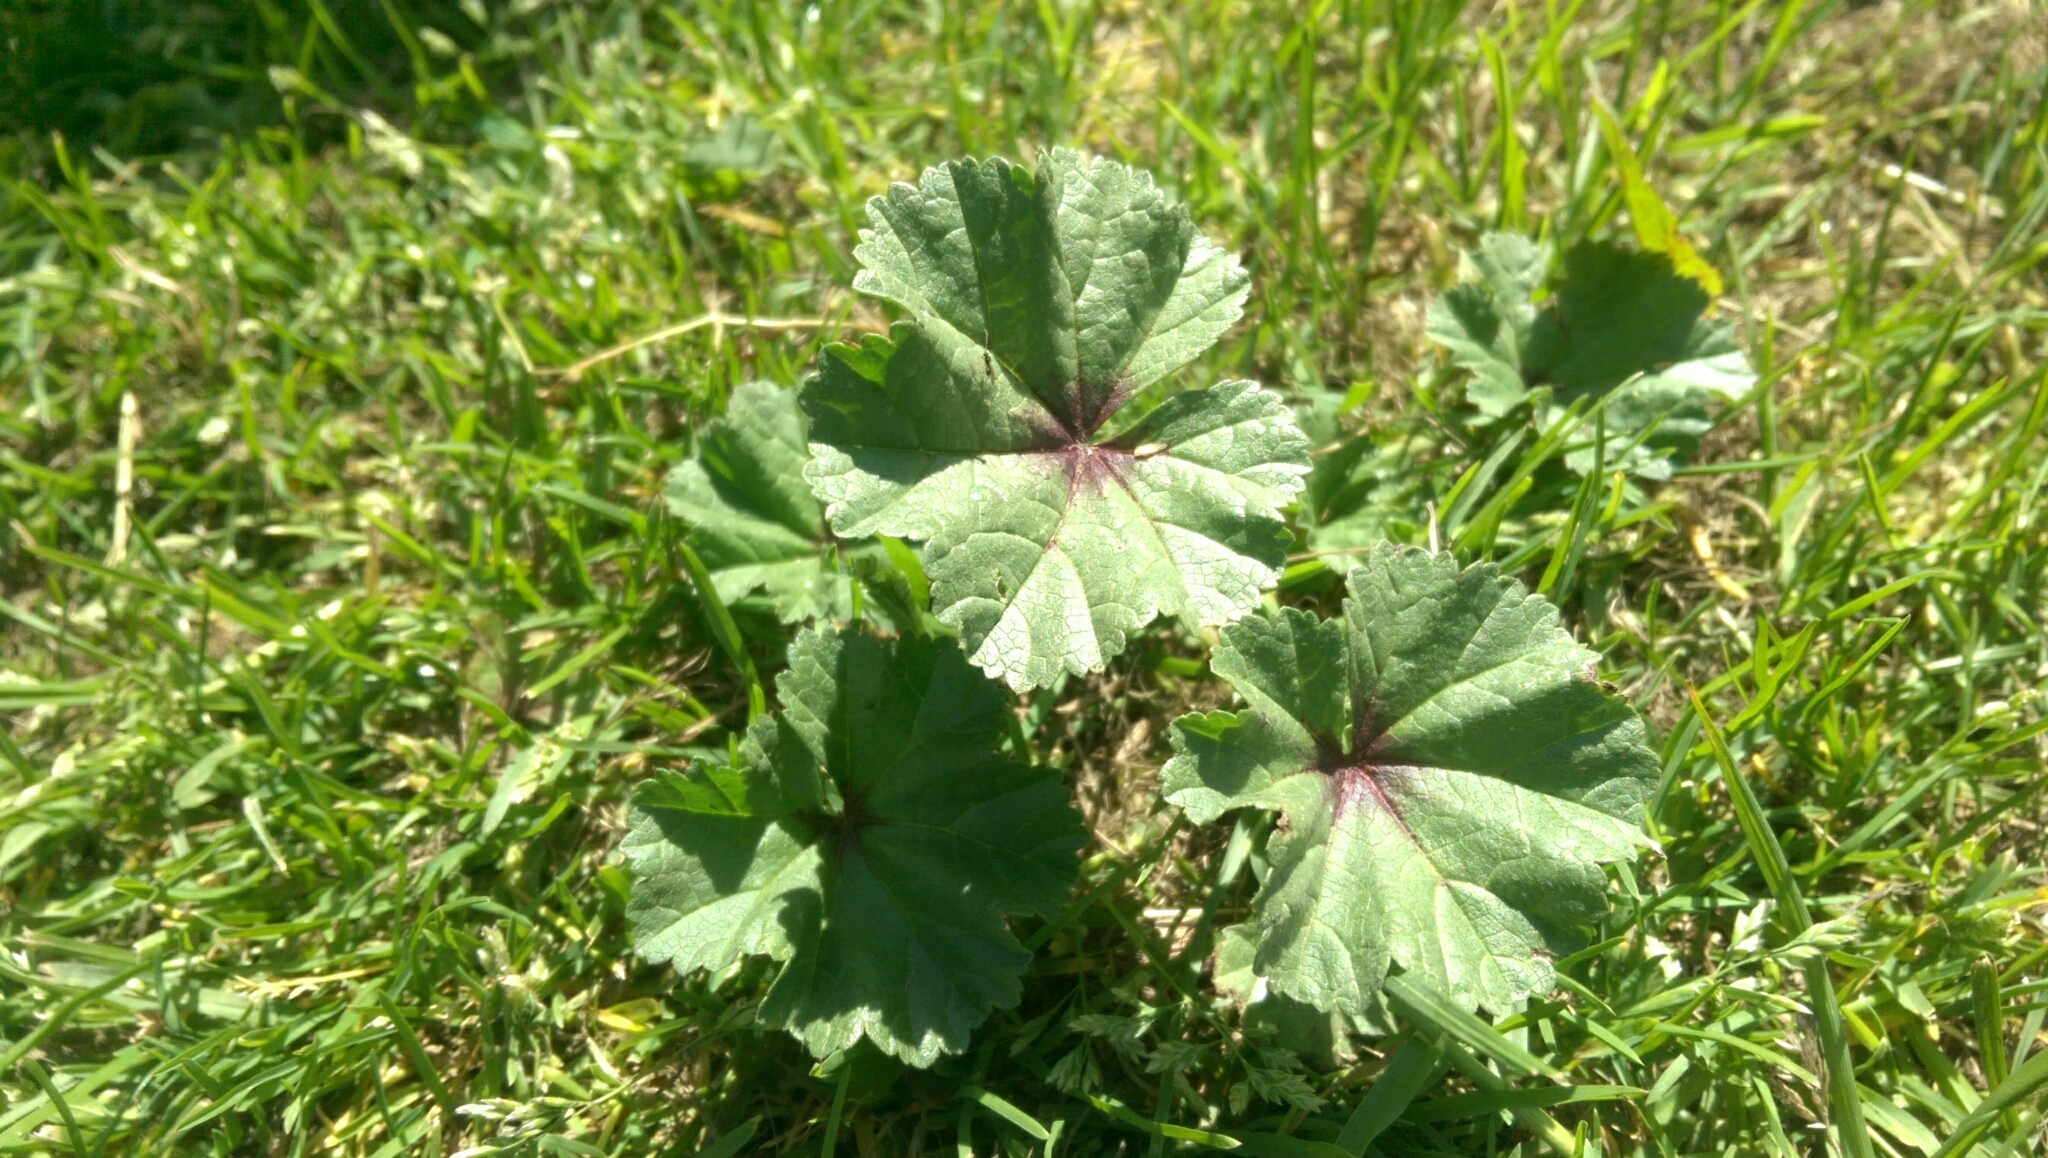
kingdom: Plantae
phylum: Tracheophyta
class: Magnoliopsida
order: Malvales
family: Malvaceae
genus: Malva
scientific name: Malva sylvestris
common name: Common mallow
